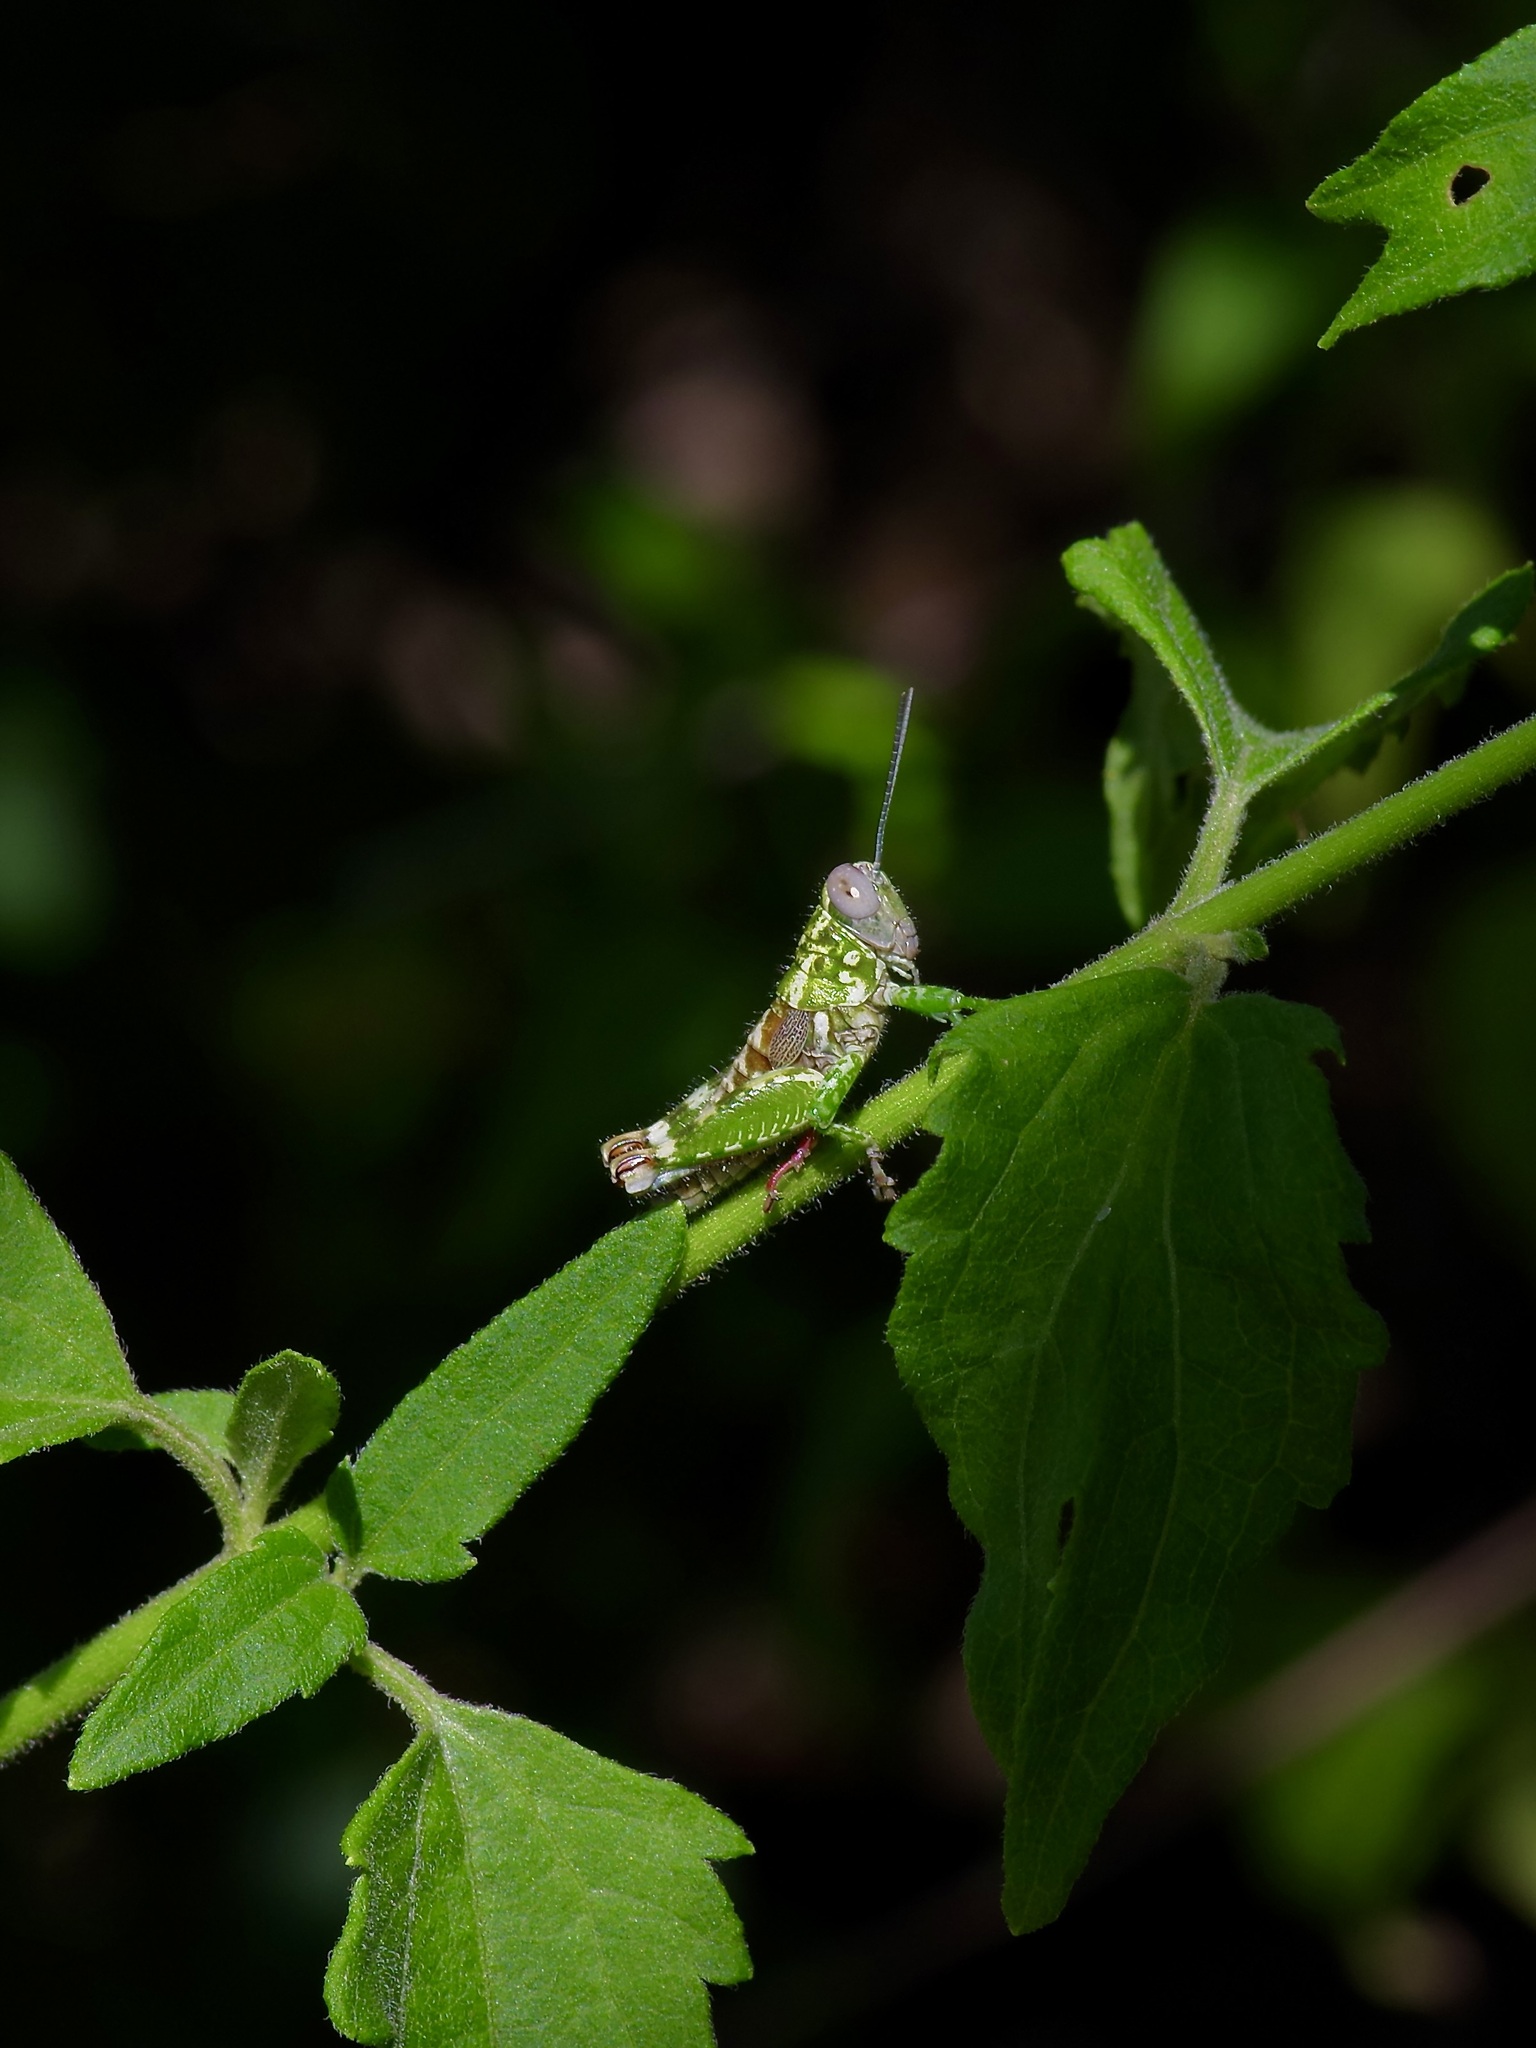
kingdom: Animalia
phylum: Arthropoda
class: Insecta
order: Orthoptera
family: Acrididae
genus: Phaulotettix
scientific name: Phaulotettix compressus
